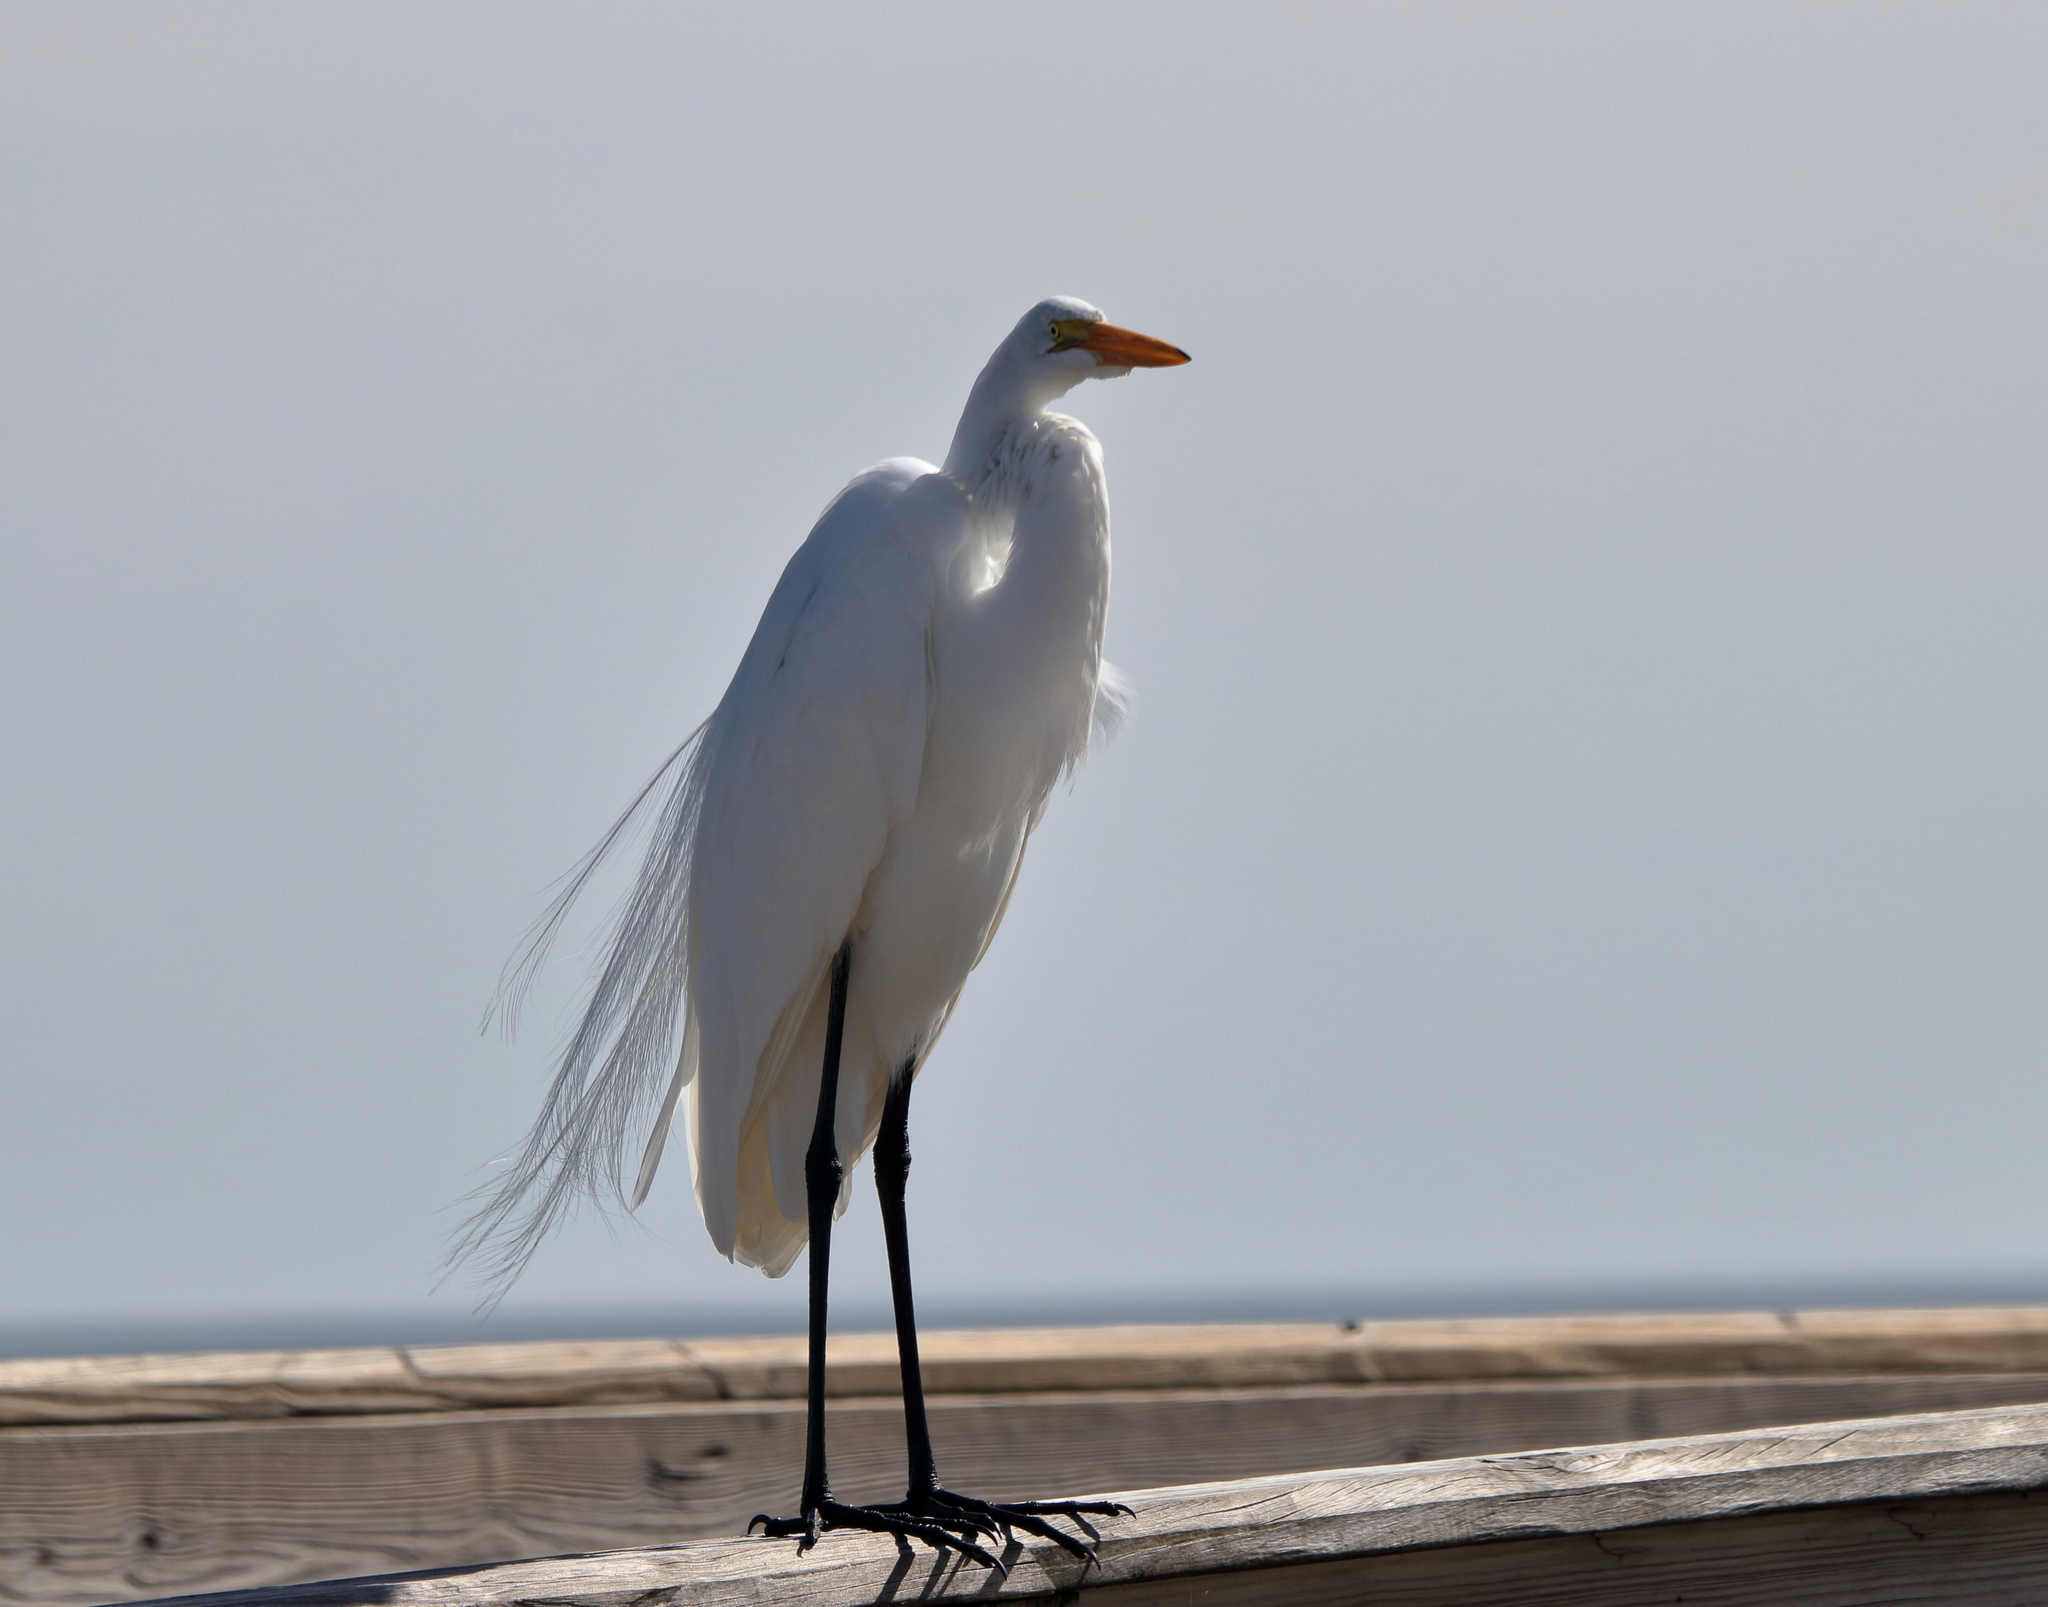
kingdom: Animalia
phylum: Chordata
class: Aves
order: Pelecaniformes
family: Ardeidae
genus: Ardea
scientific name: Ardea alba
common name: Great egret
